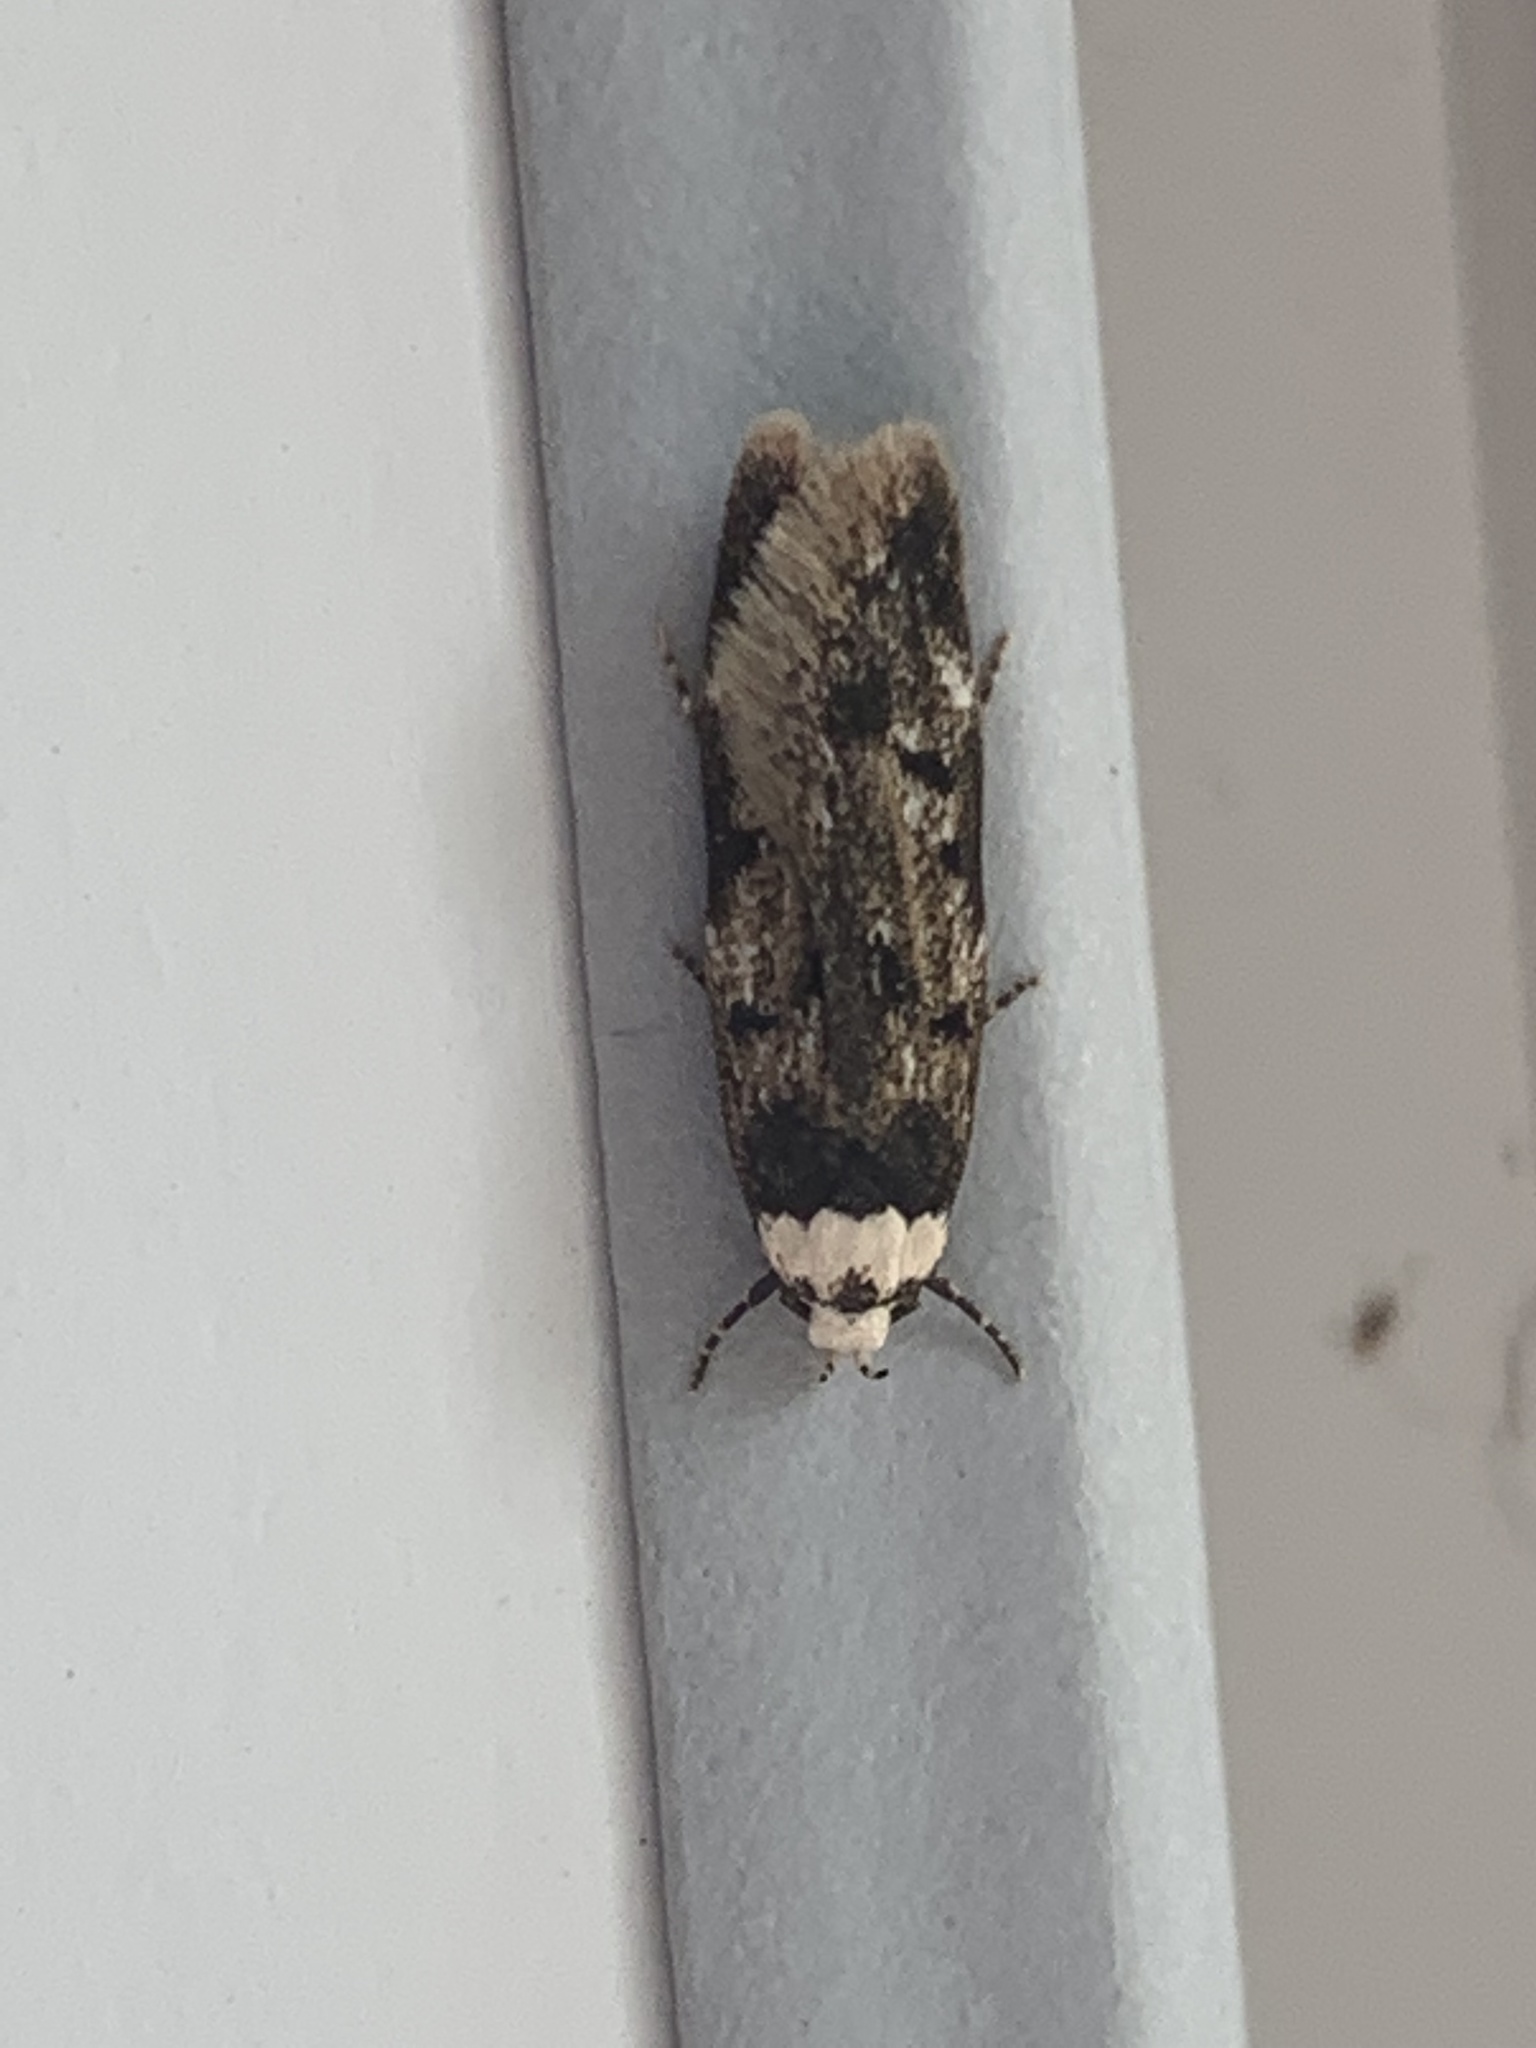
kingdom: Animalia
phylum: Arthropoda
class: Insecta
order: Lepidoptera
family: Oecophoridae
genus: Endrosis
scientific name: Endrosis sarcitrella
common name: White-shouldered house moth
